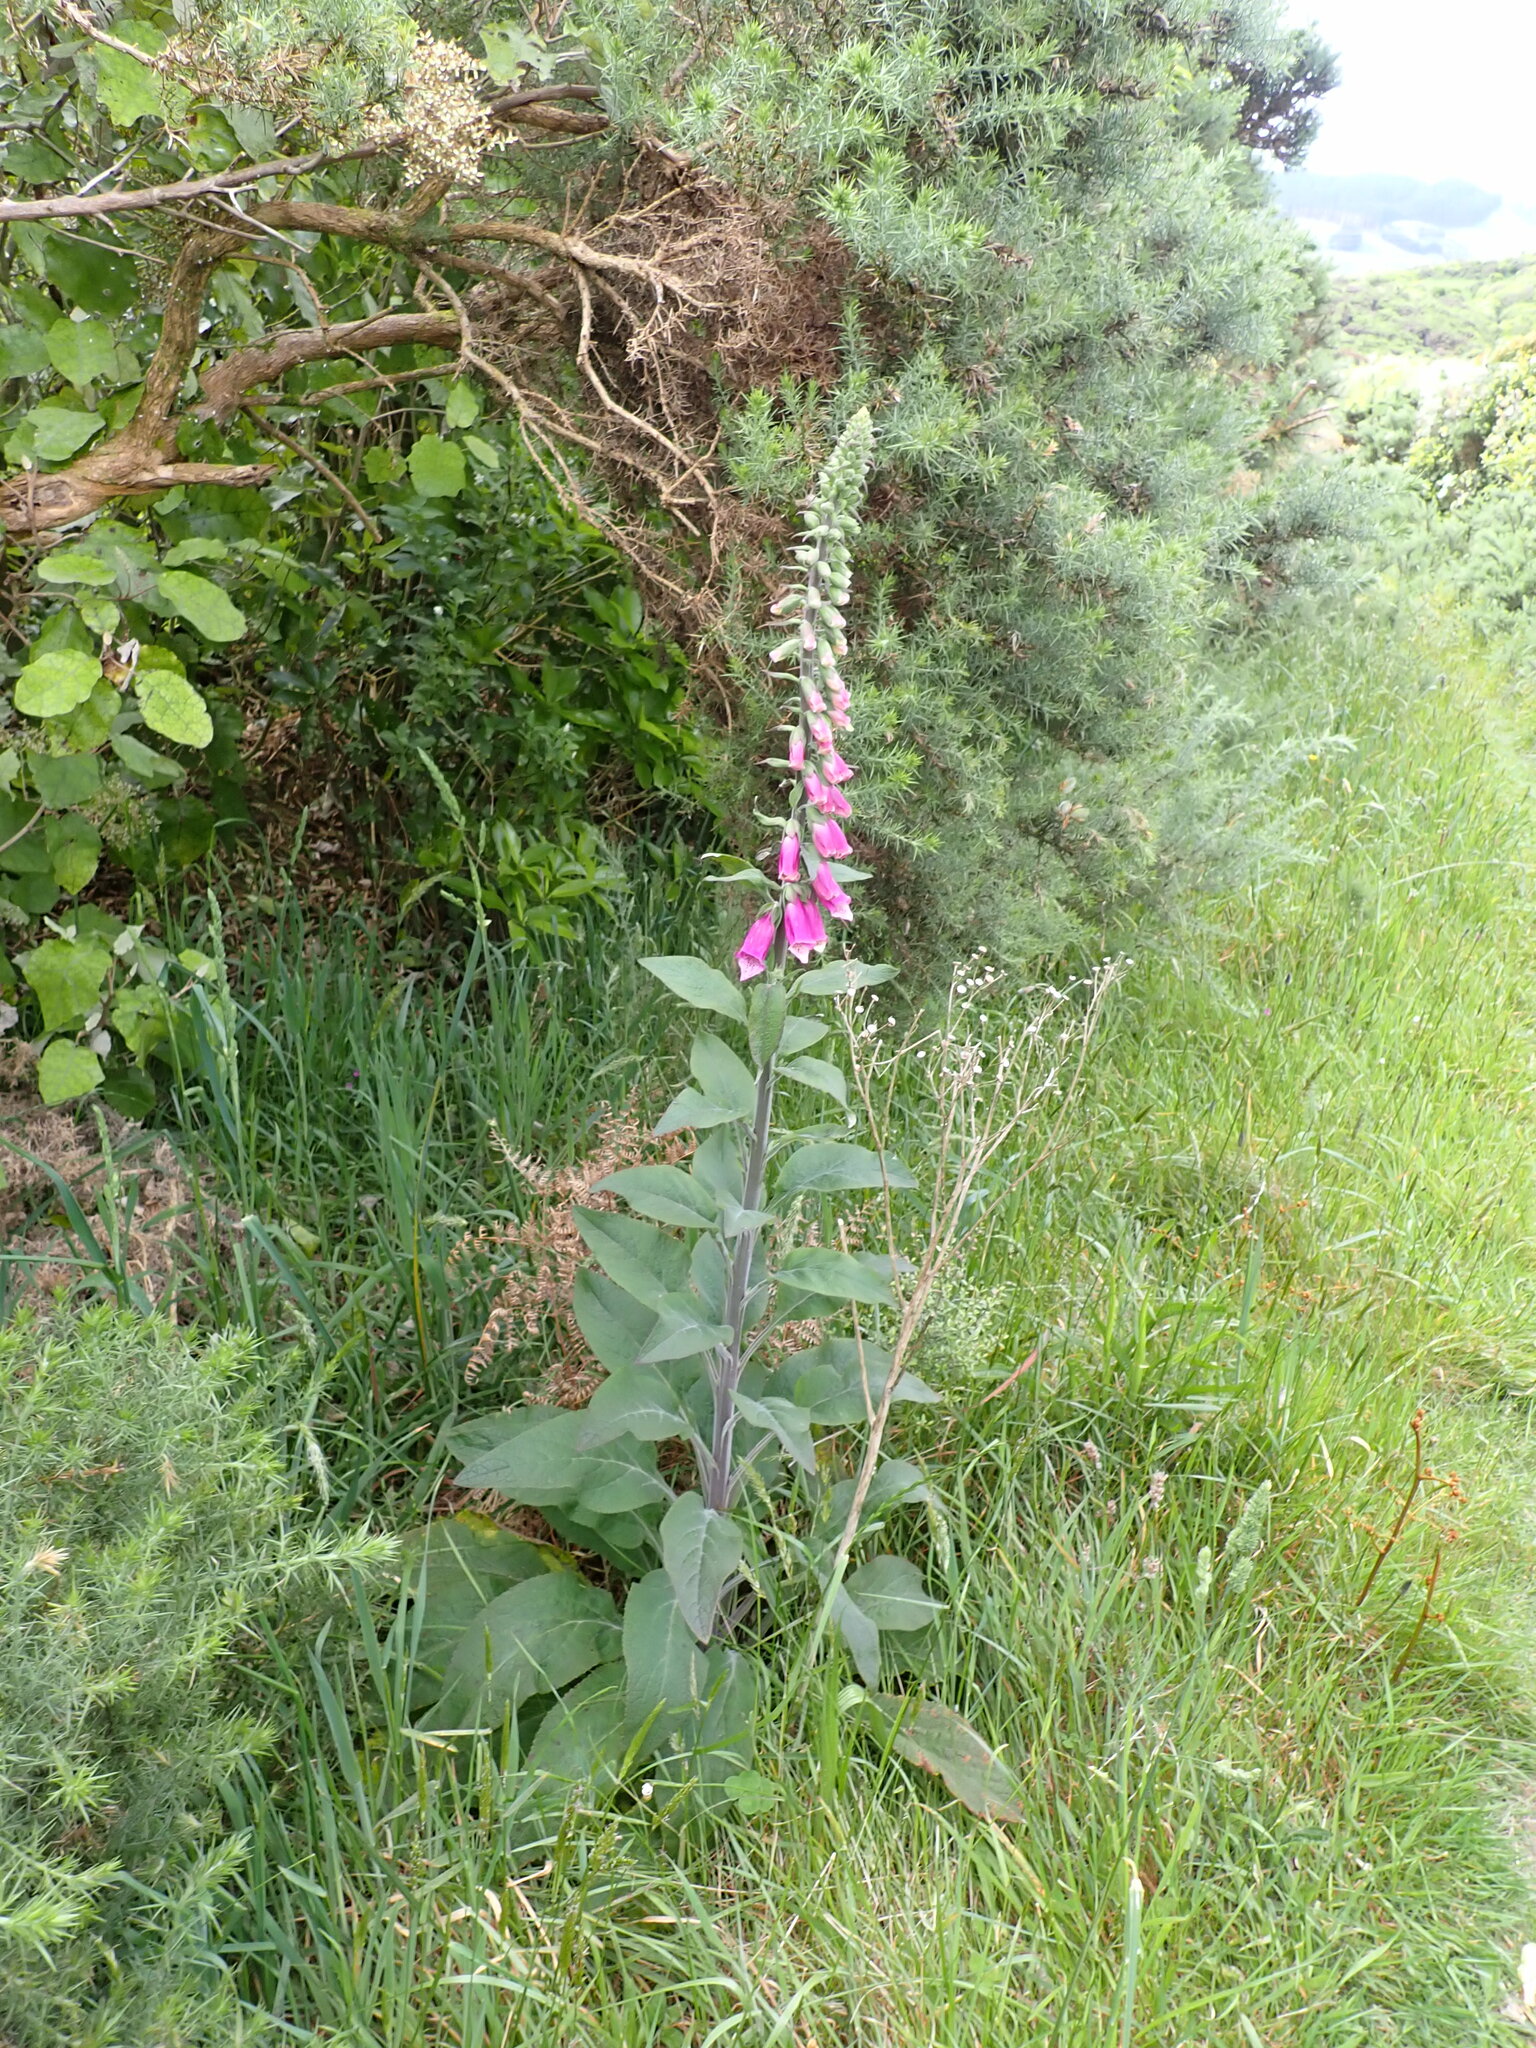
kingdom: Plantae
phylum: Tracheophyta
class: Magnoliopsida
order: Lamiales
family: Plantaginaceae
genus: Digitalis
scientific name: Digitalis purpurea
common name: Foxglove
